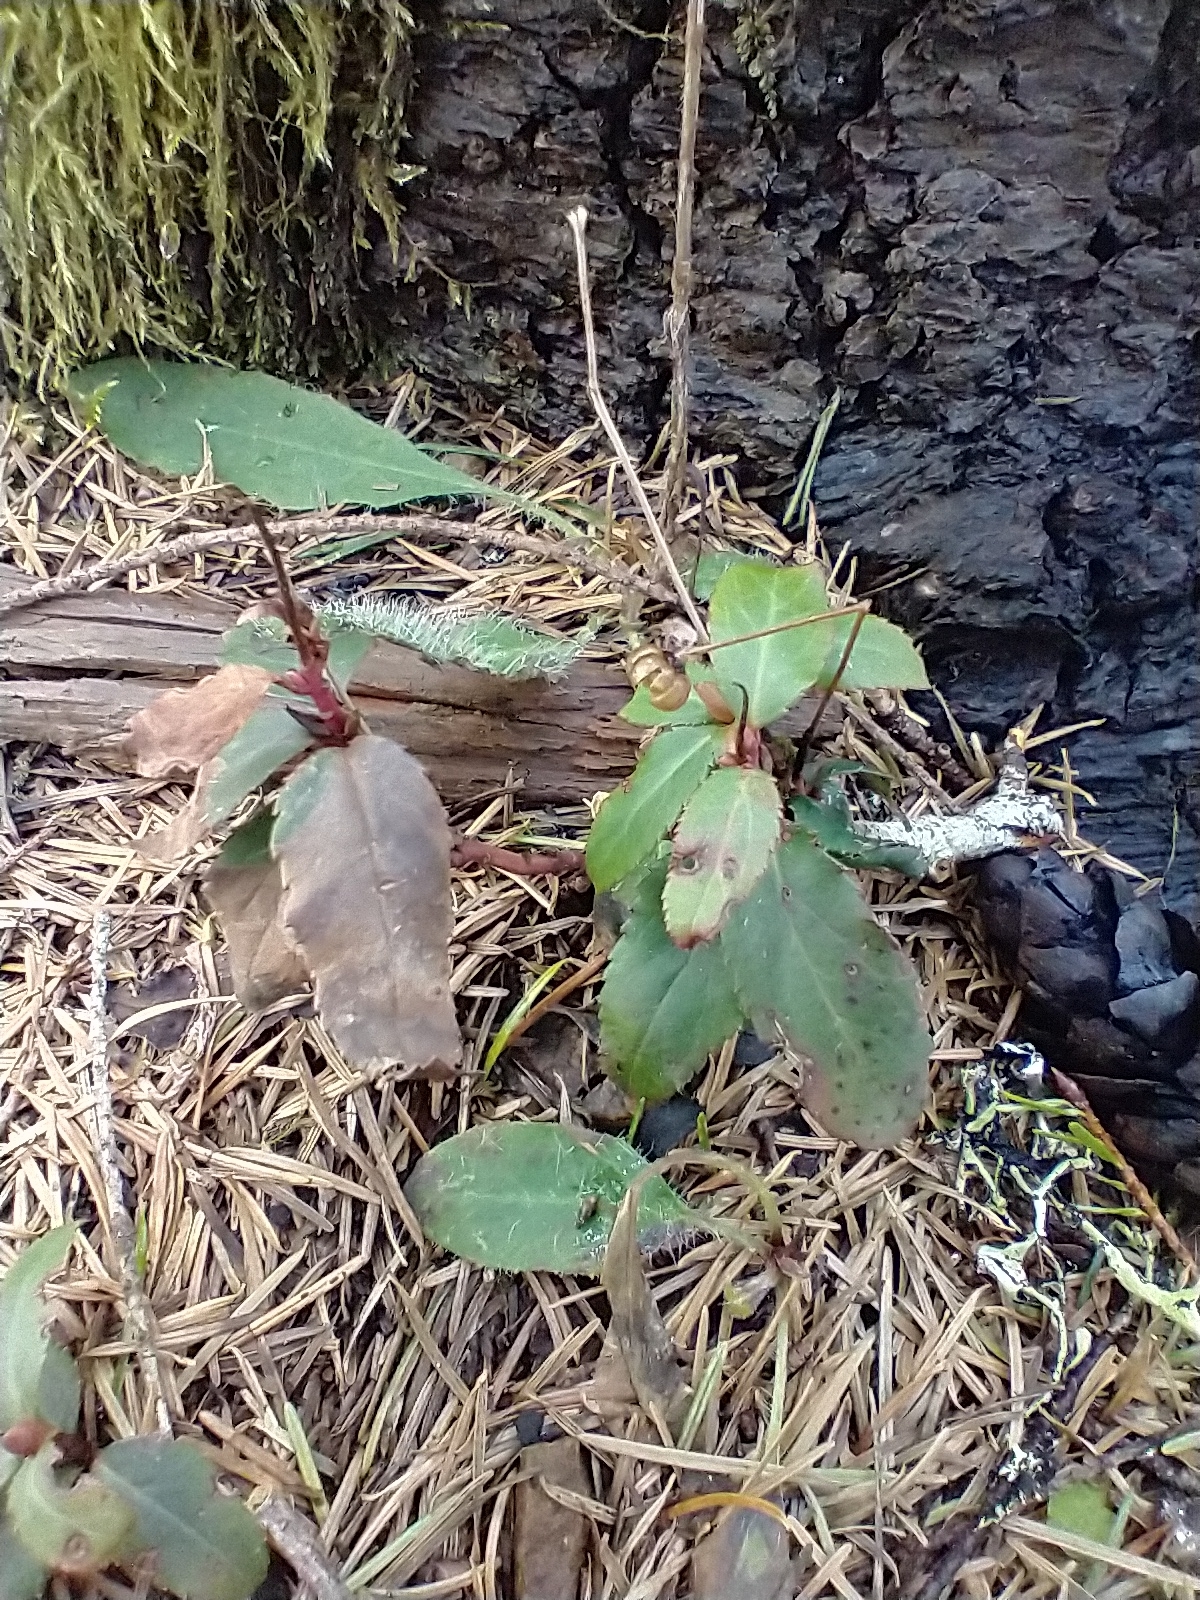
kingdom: Plantae
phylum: Tracheophyta
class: Magnoliopsida
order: Ericales
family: Ericaceae
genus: Chimaphila
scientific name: Chimaphila menziesii
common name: Menzies' pipsissewa
